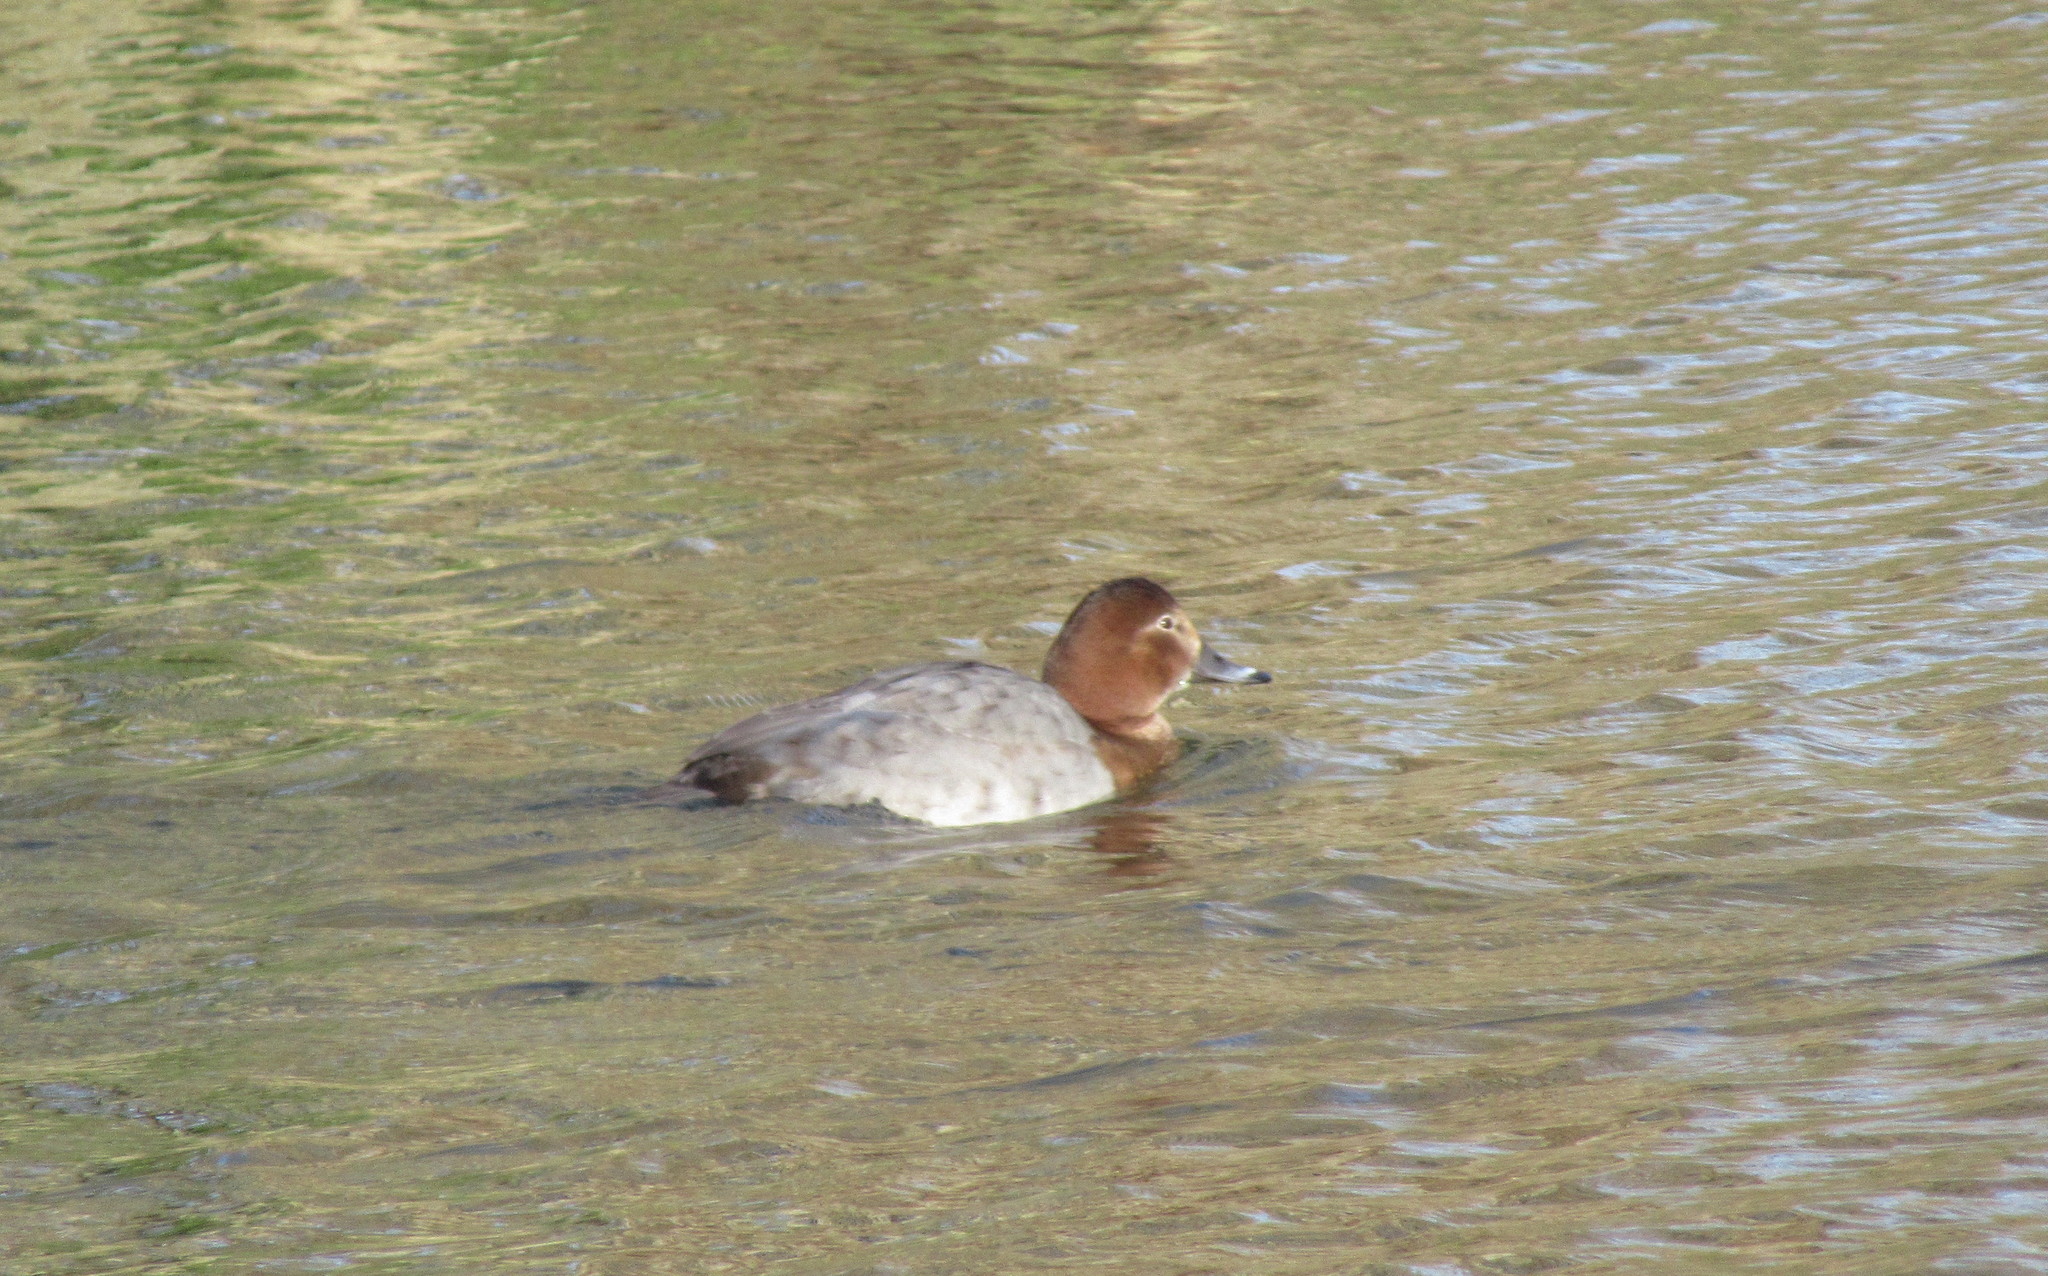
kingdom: Animalia
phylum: Chordata
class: Aves
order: Anseriformes
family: Anatidae
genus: Aythya
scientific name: Aythya ferina
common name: Common pochard
